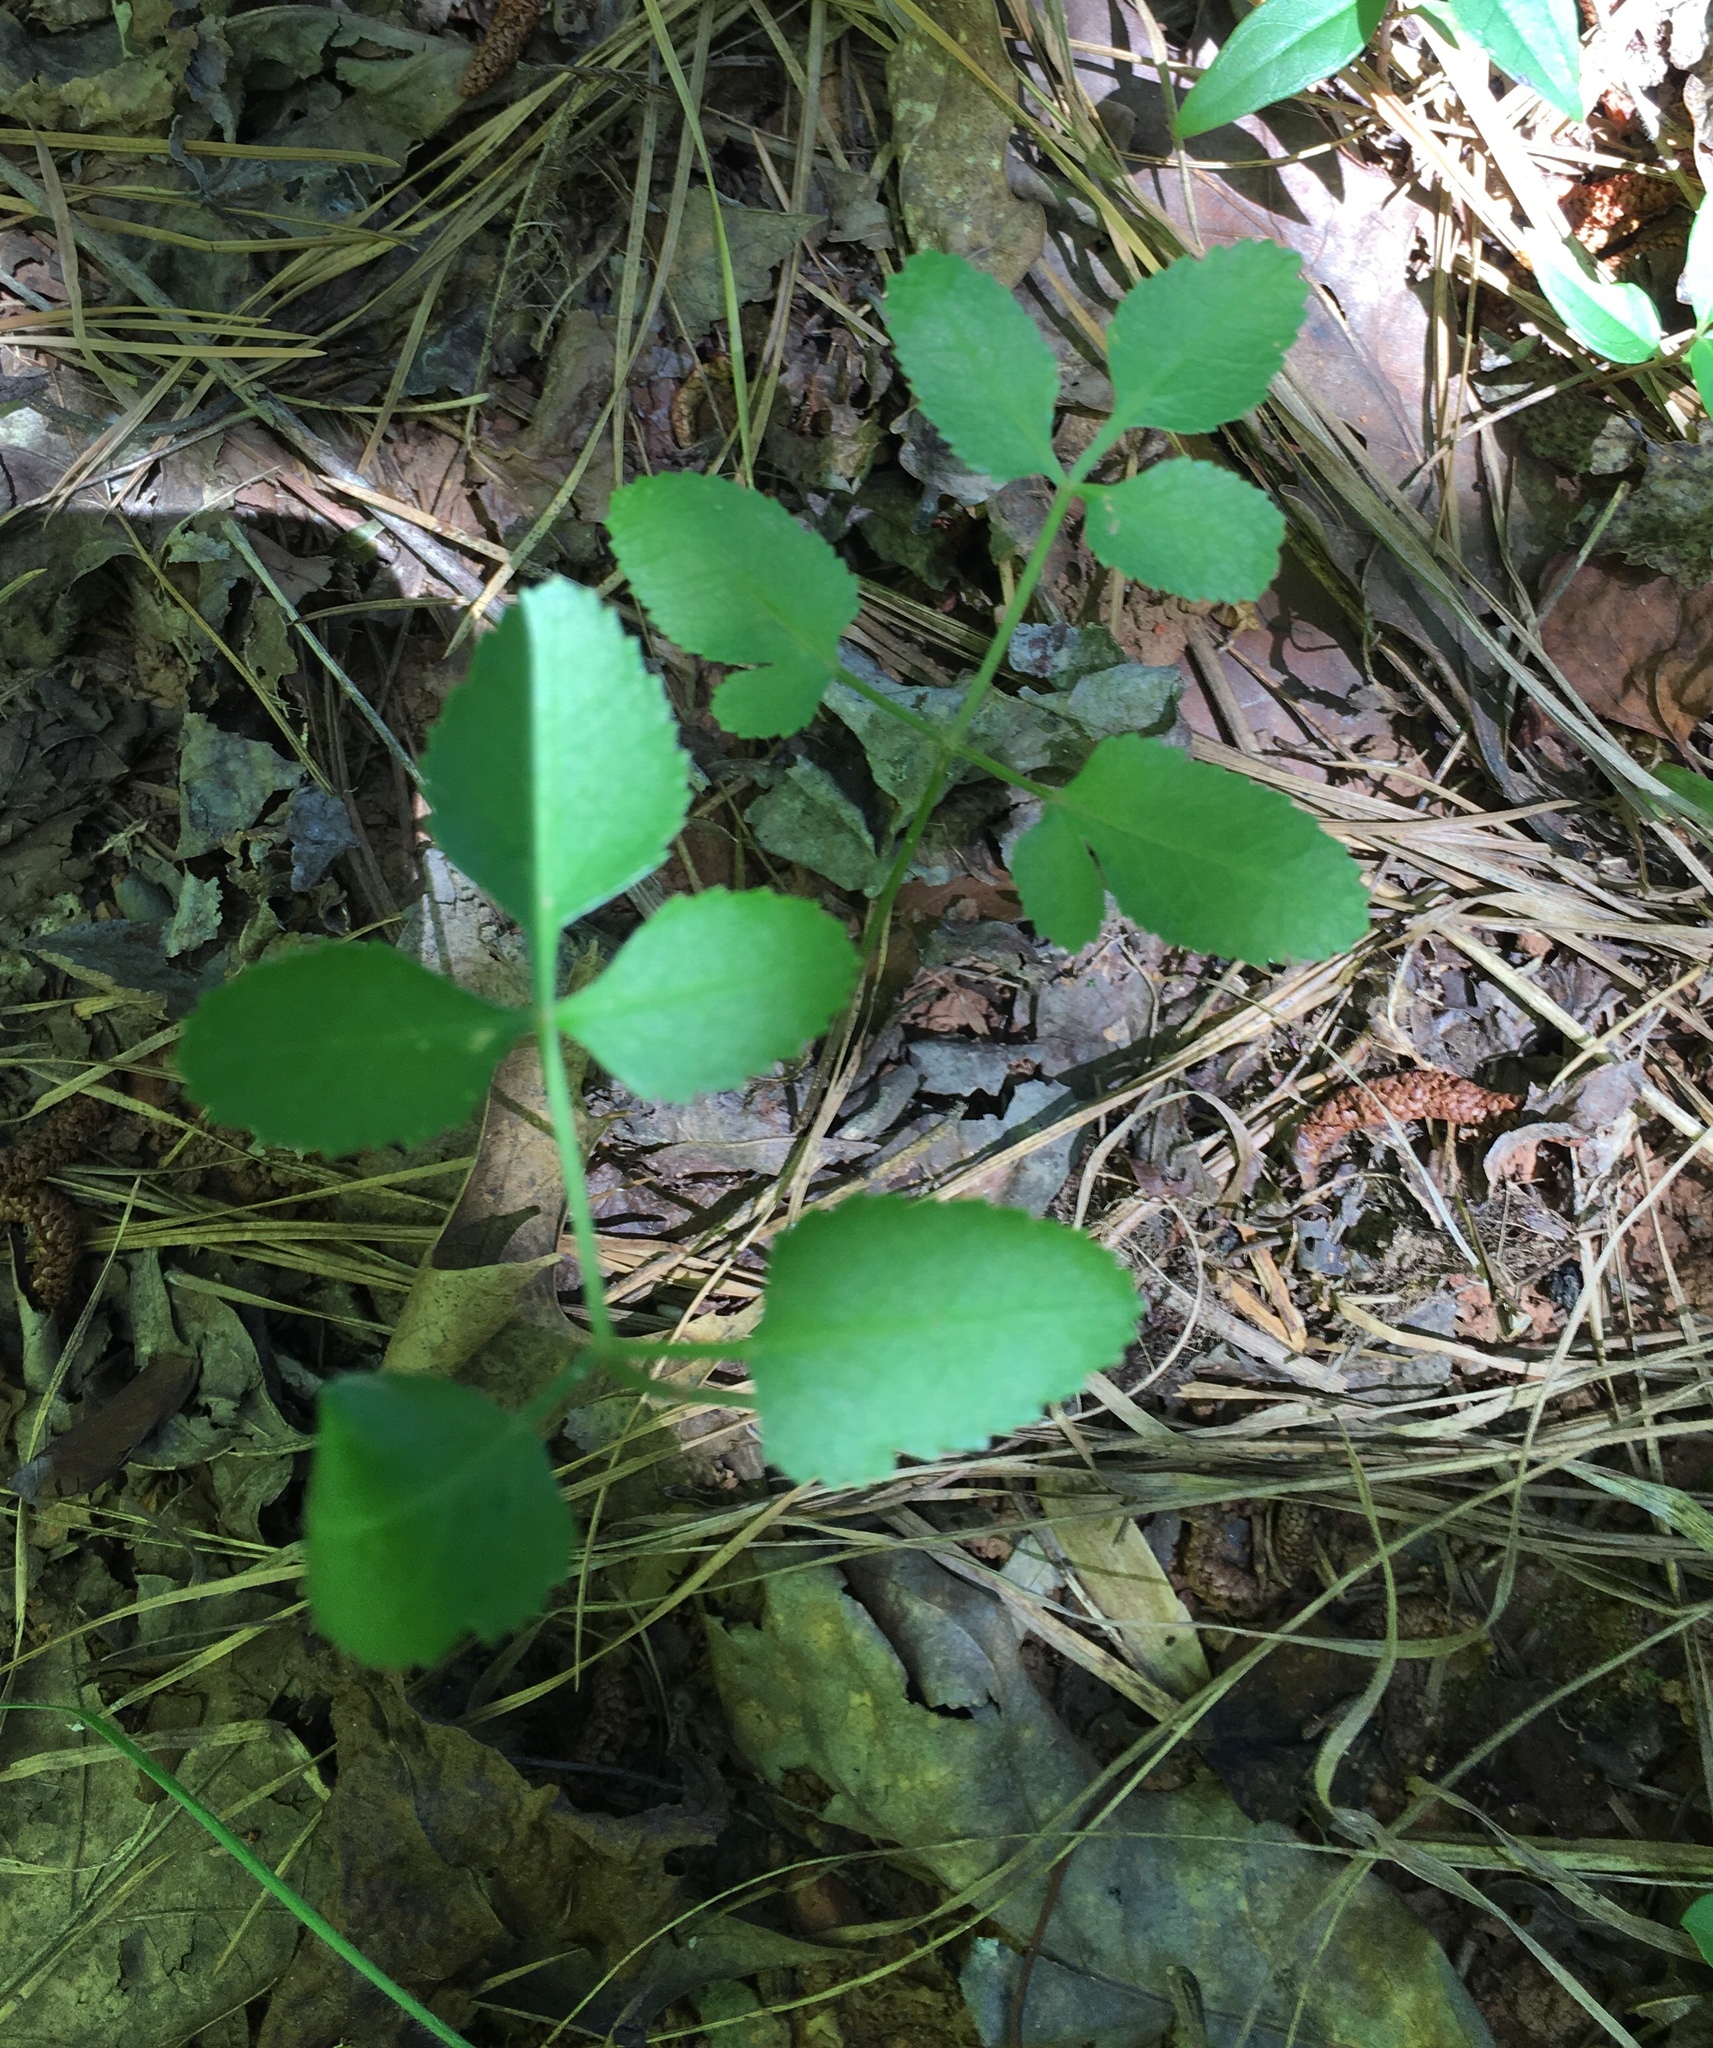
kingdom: Plantae
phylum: Tracheophyta
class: Magnoliopsida
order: Apiales
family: Apiaceae
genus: Zizia
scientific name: Zizia aurea
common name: Golden alexanders
